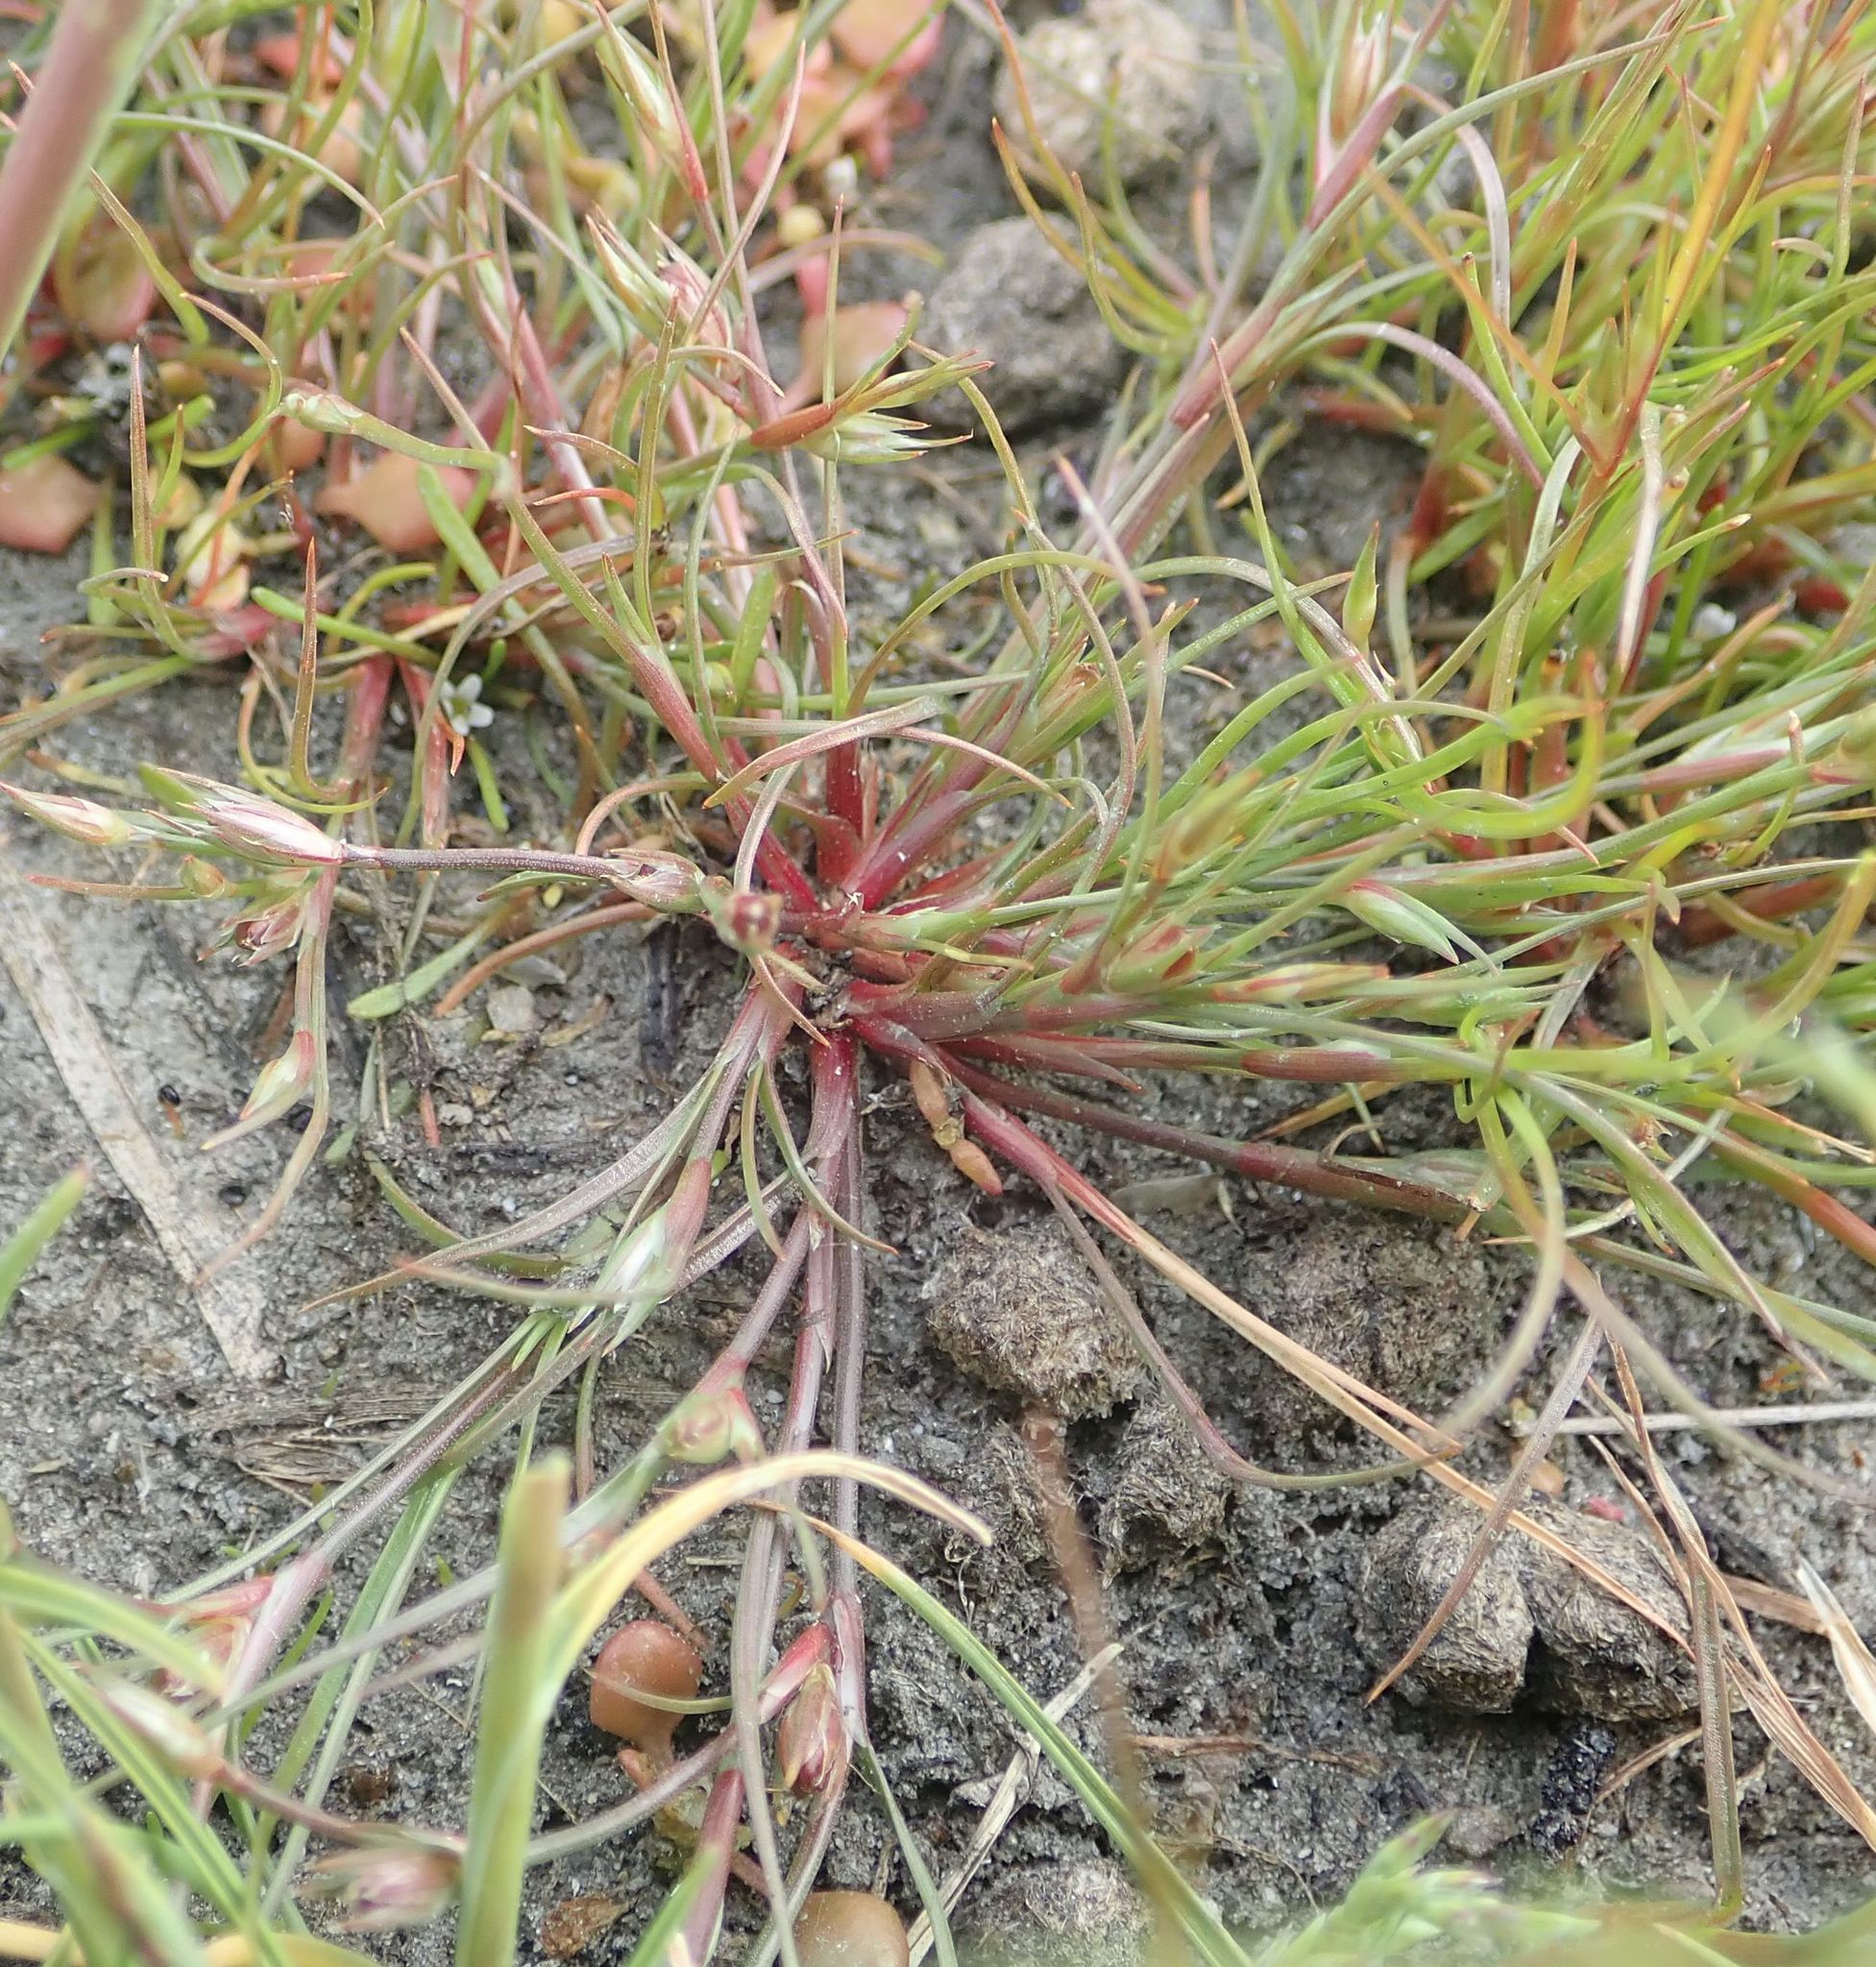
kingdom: Plantae
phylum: Tracheophyta
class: Liliopsida
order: Poales
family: Juncaceae
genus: Juncus
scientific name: Juncus bufonius
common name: Toad rush
